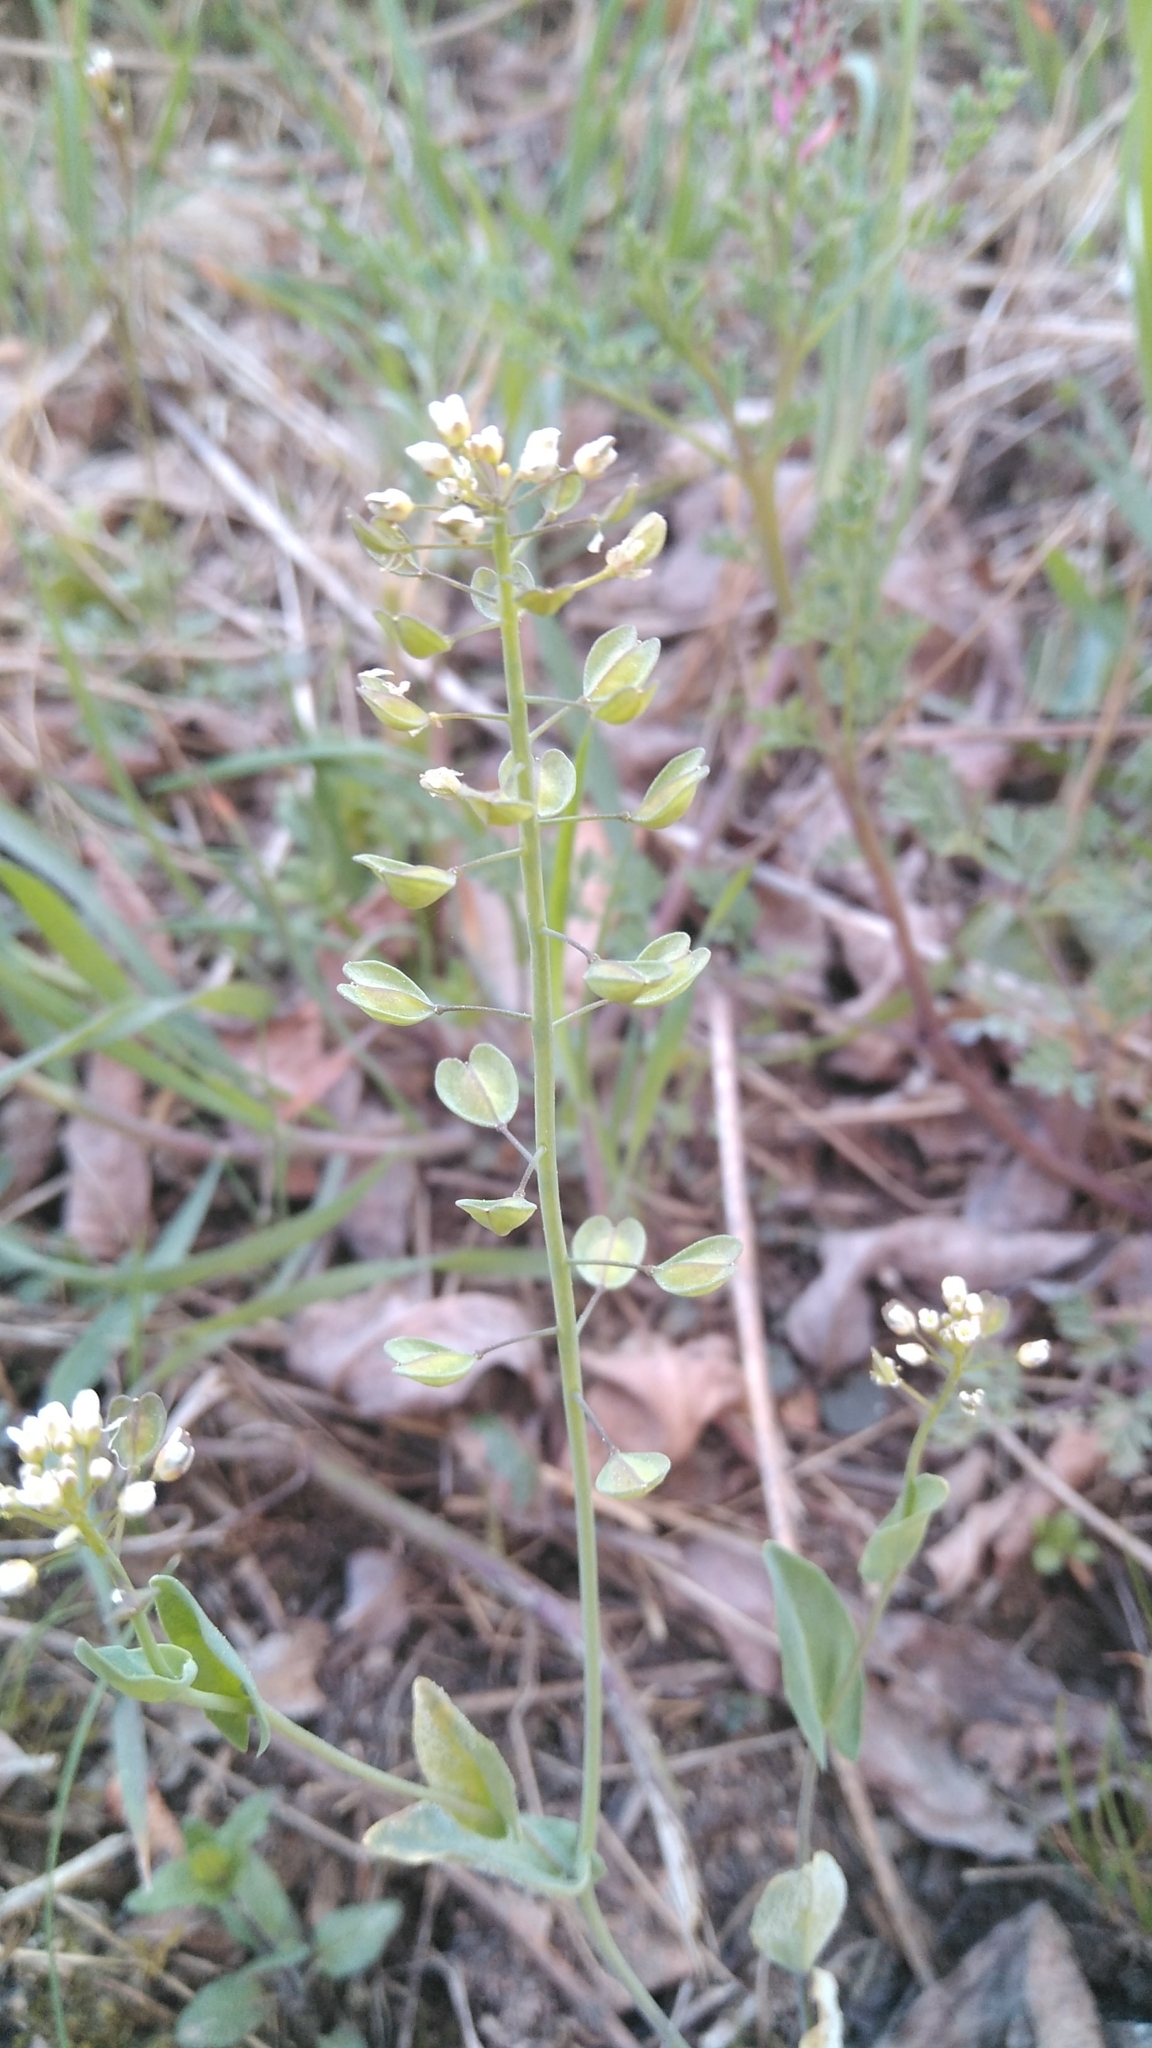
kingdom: Plantae
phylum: Tracheophyta
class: Magnoliopsida
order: Brassicales
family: Brassicaceae
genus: Noccaea
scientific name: Noccaea perfoliata
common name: Perfoliate pennycress
